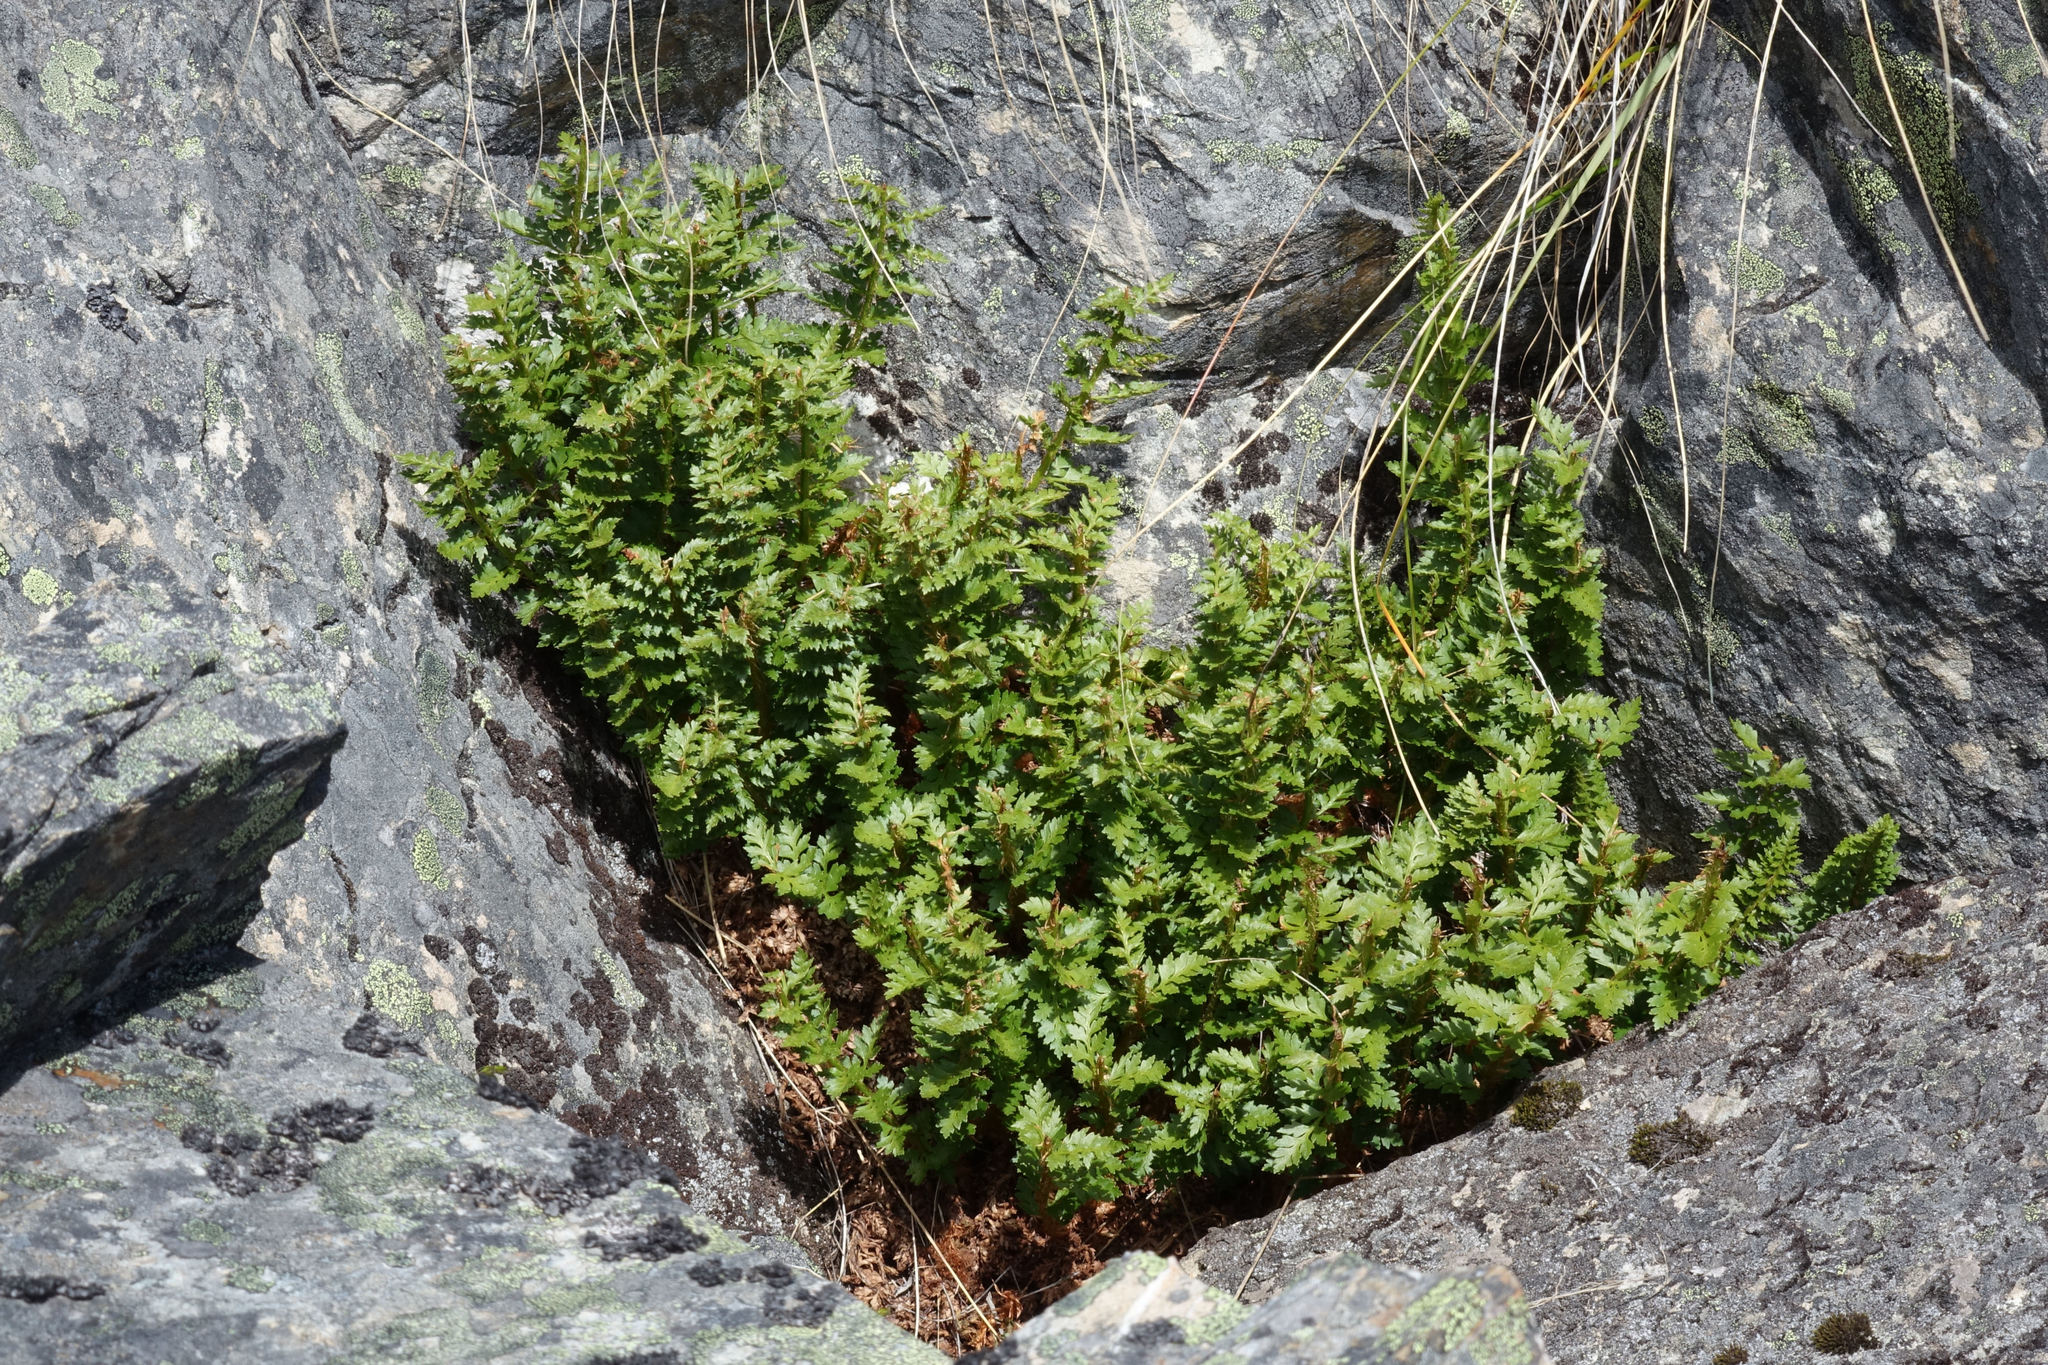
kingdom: Plantae
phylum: Tracheophyta
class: Polypodiopsida
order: Polypodiales
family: Dryopteridaceae
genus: Polystichum
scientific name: Polystichum cystostegia
